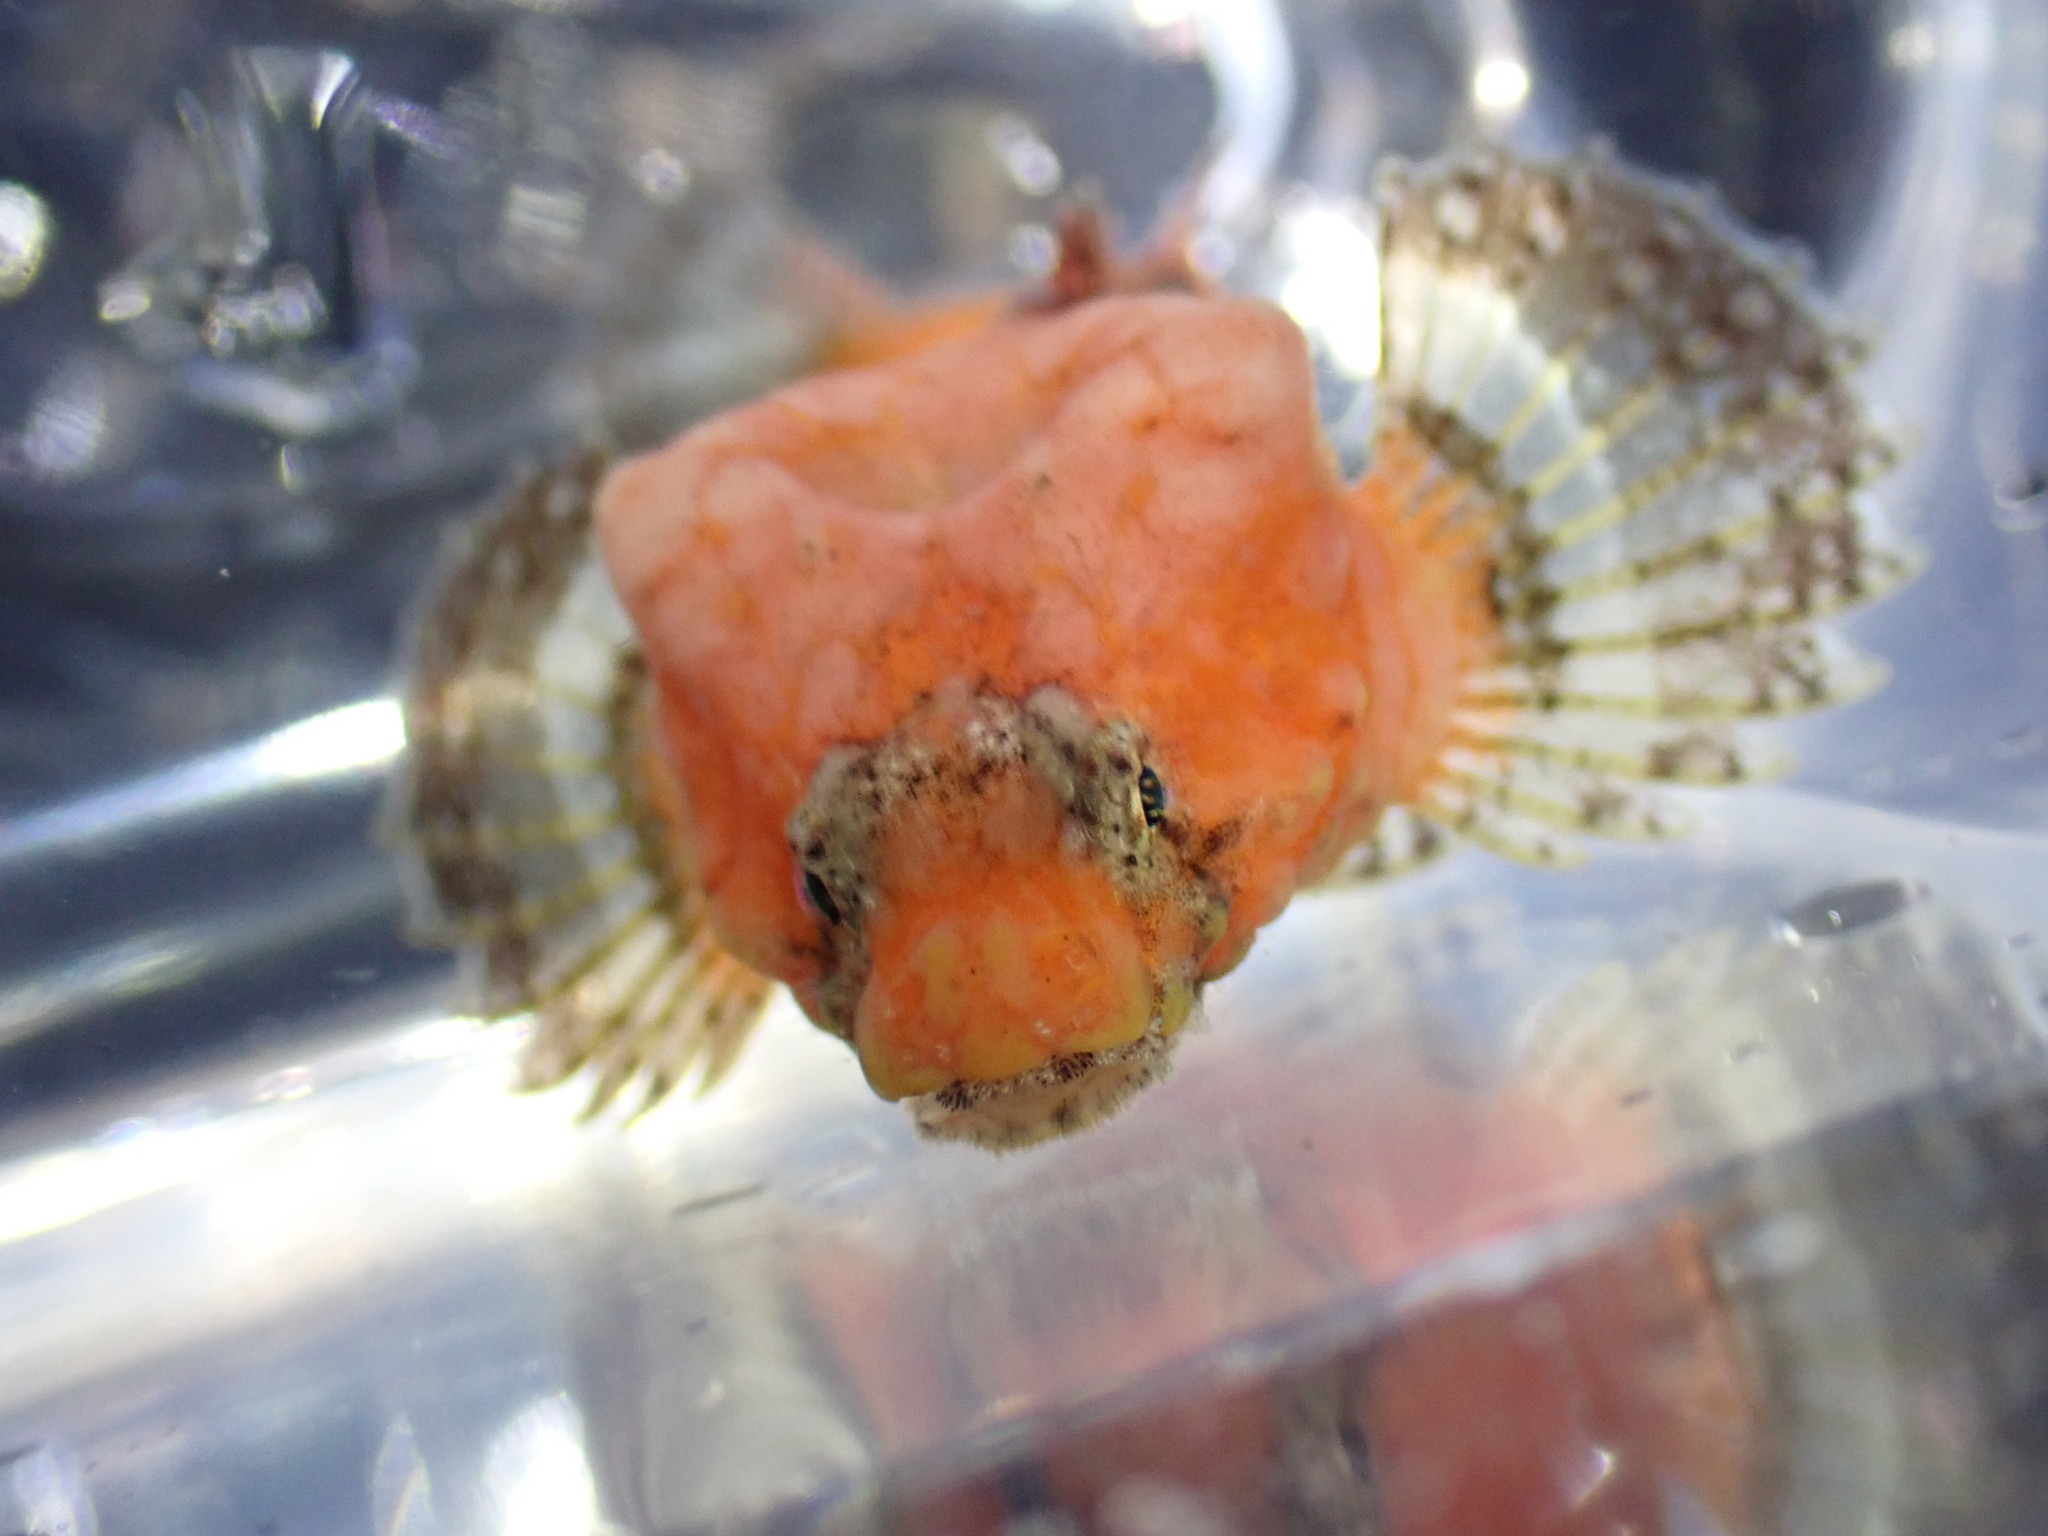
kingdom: Animalia
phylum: Chordata
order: Scorpaeniformes
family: Agonidae
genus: Bothragonus
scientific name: Bothragonus swanii
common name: Rockhead
